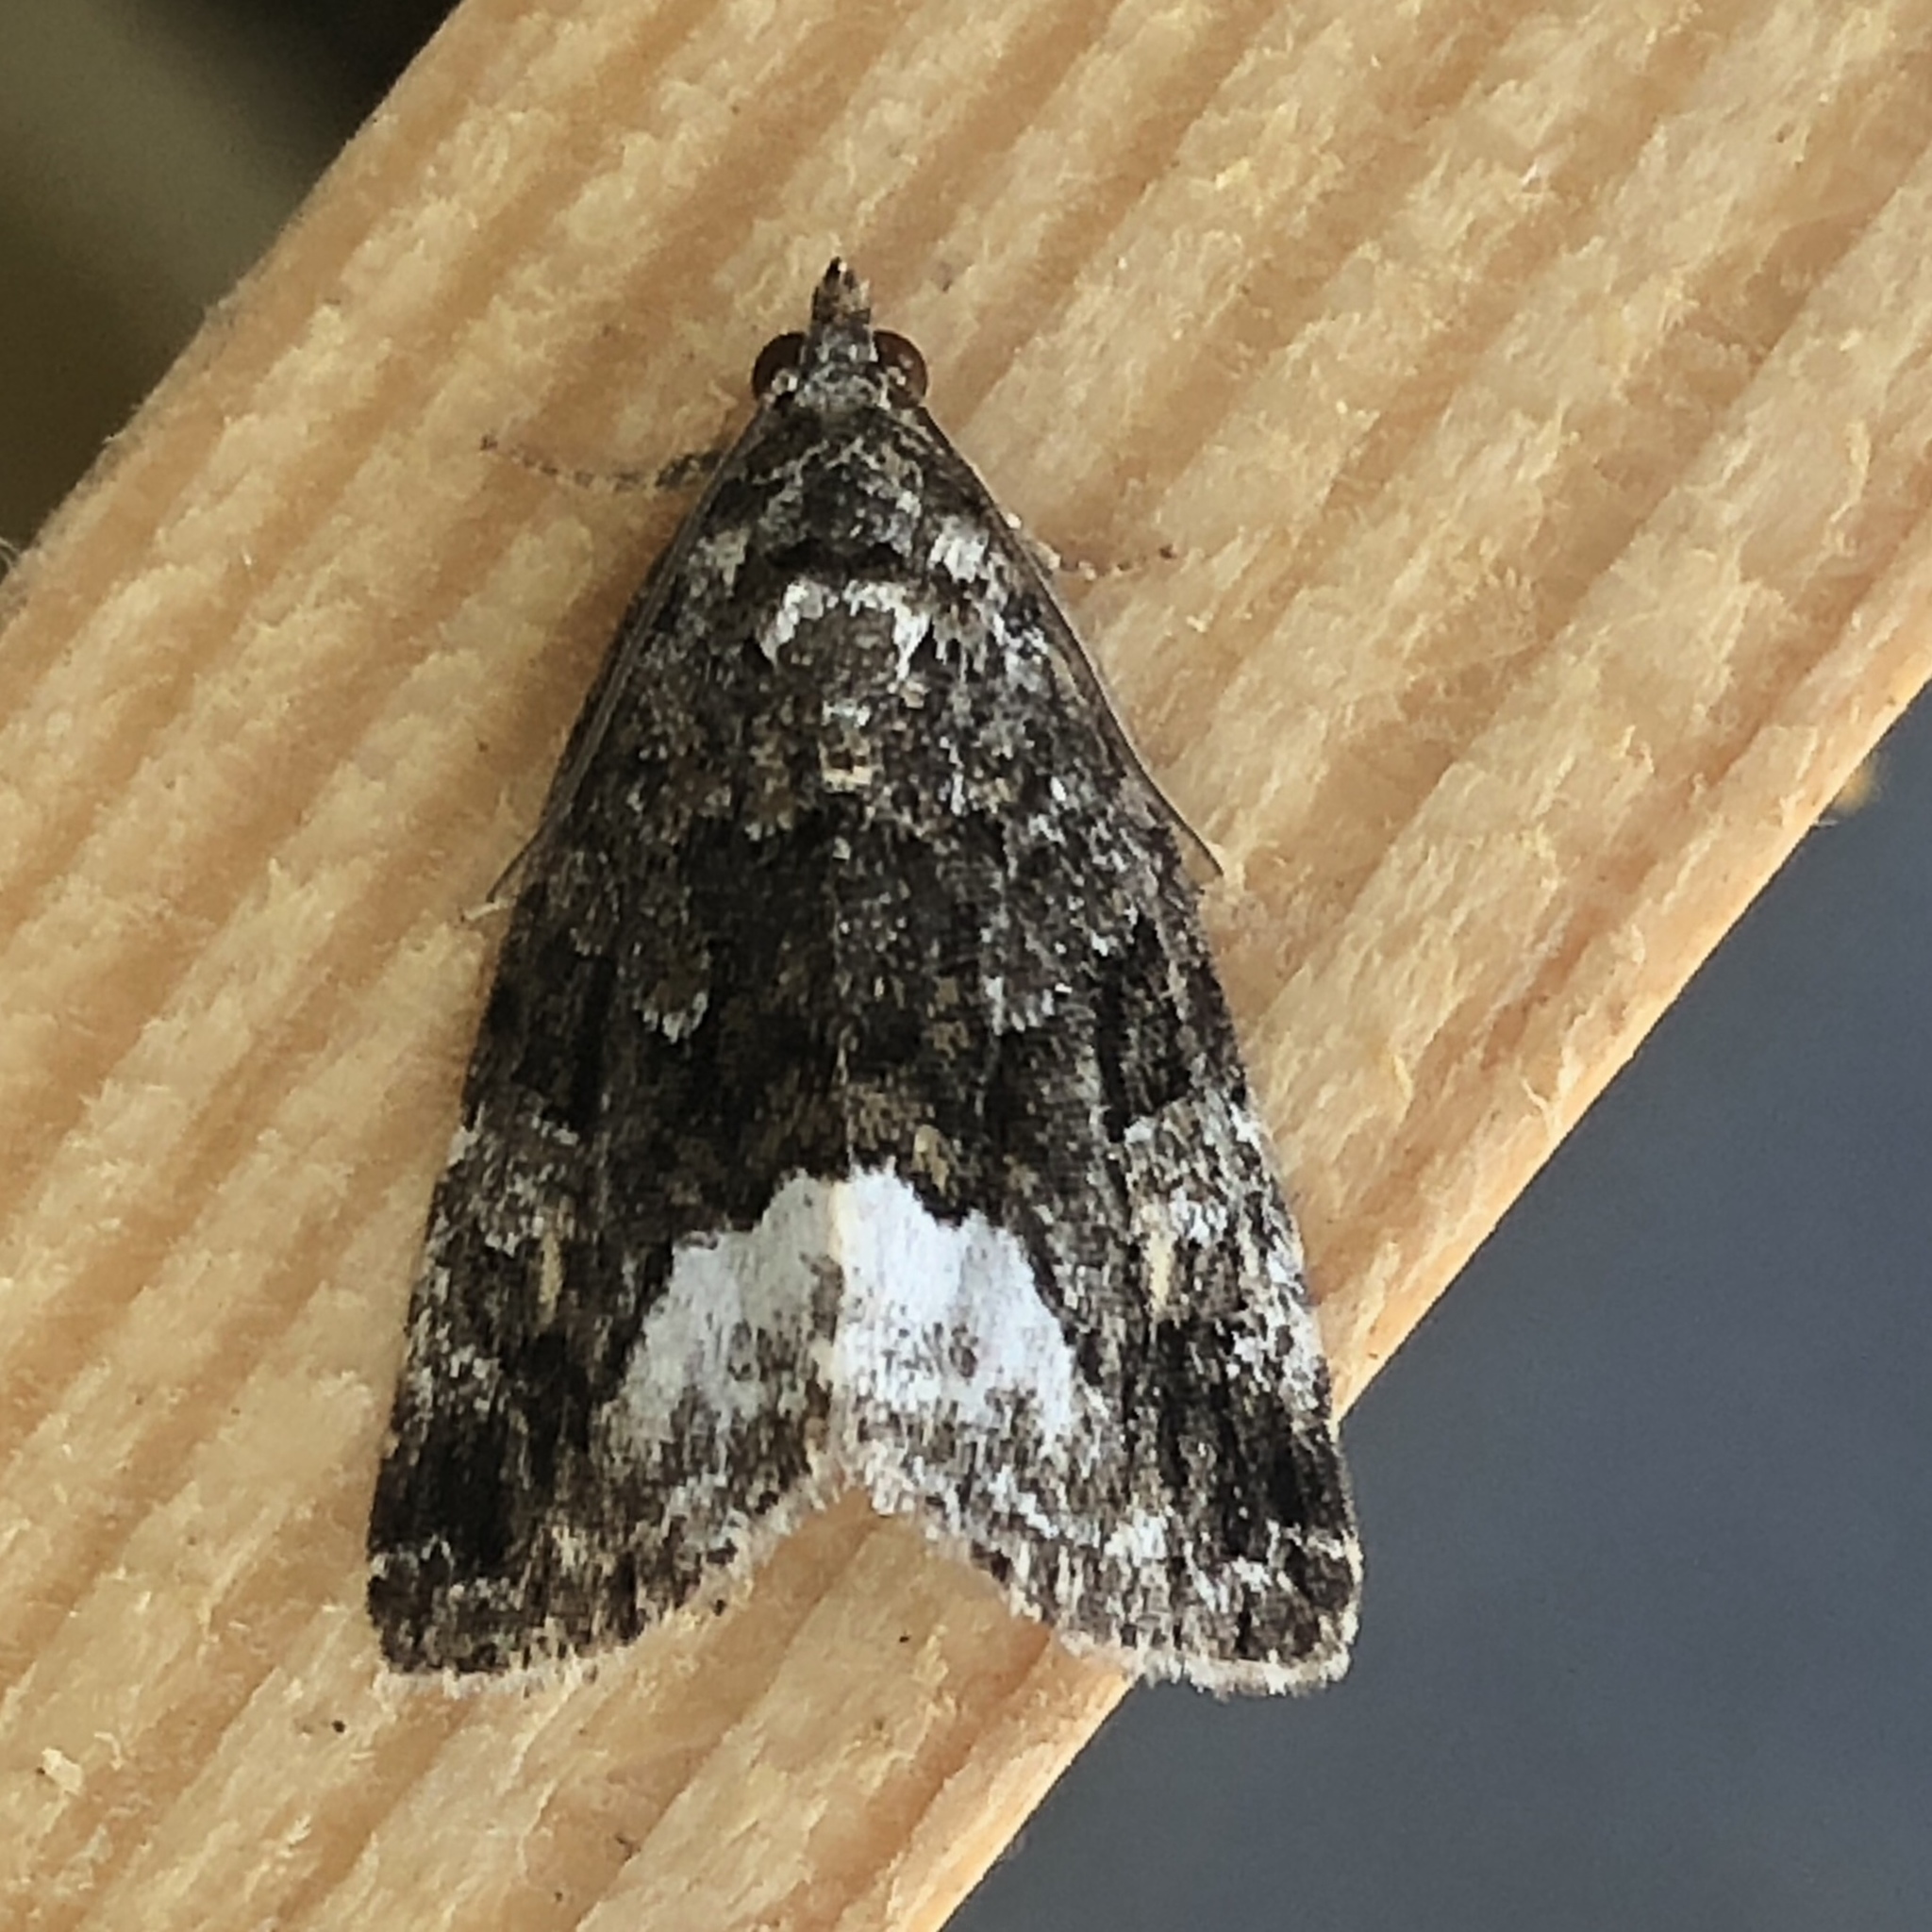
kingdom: Animalia
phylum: Arthropoda
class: Insecta
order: Lepidoptera
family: Noctuidae
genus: Deltote
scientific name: Deltote pygarga
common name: Marbled white spot
